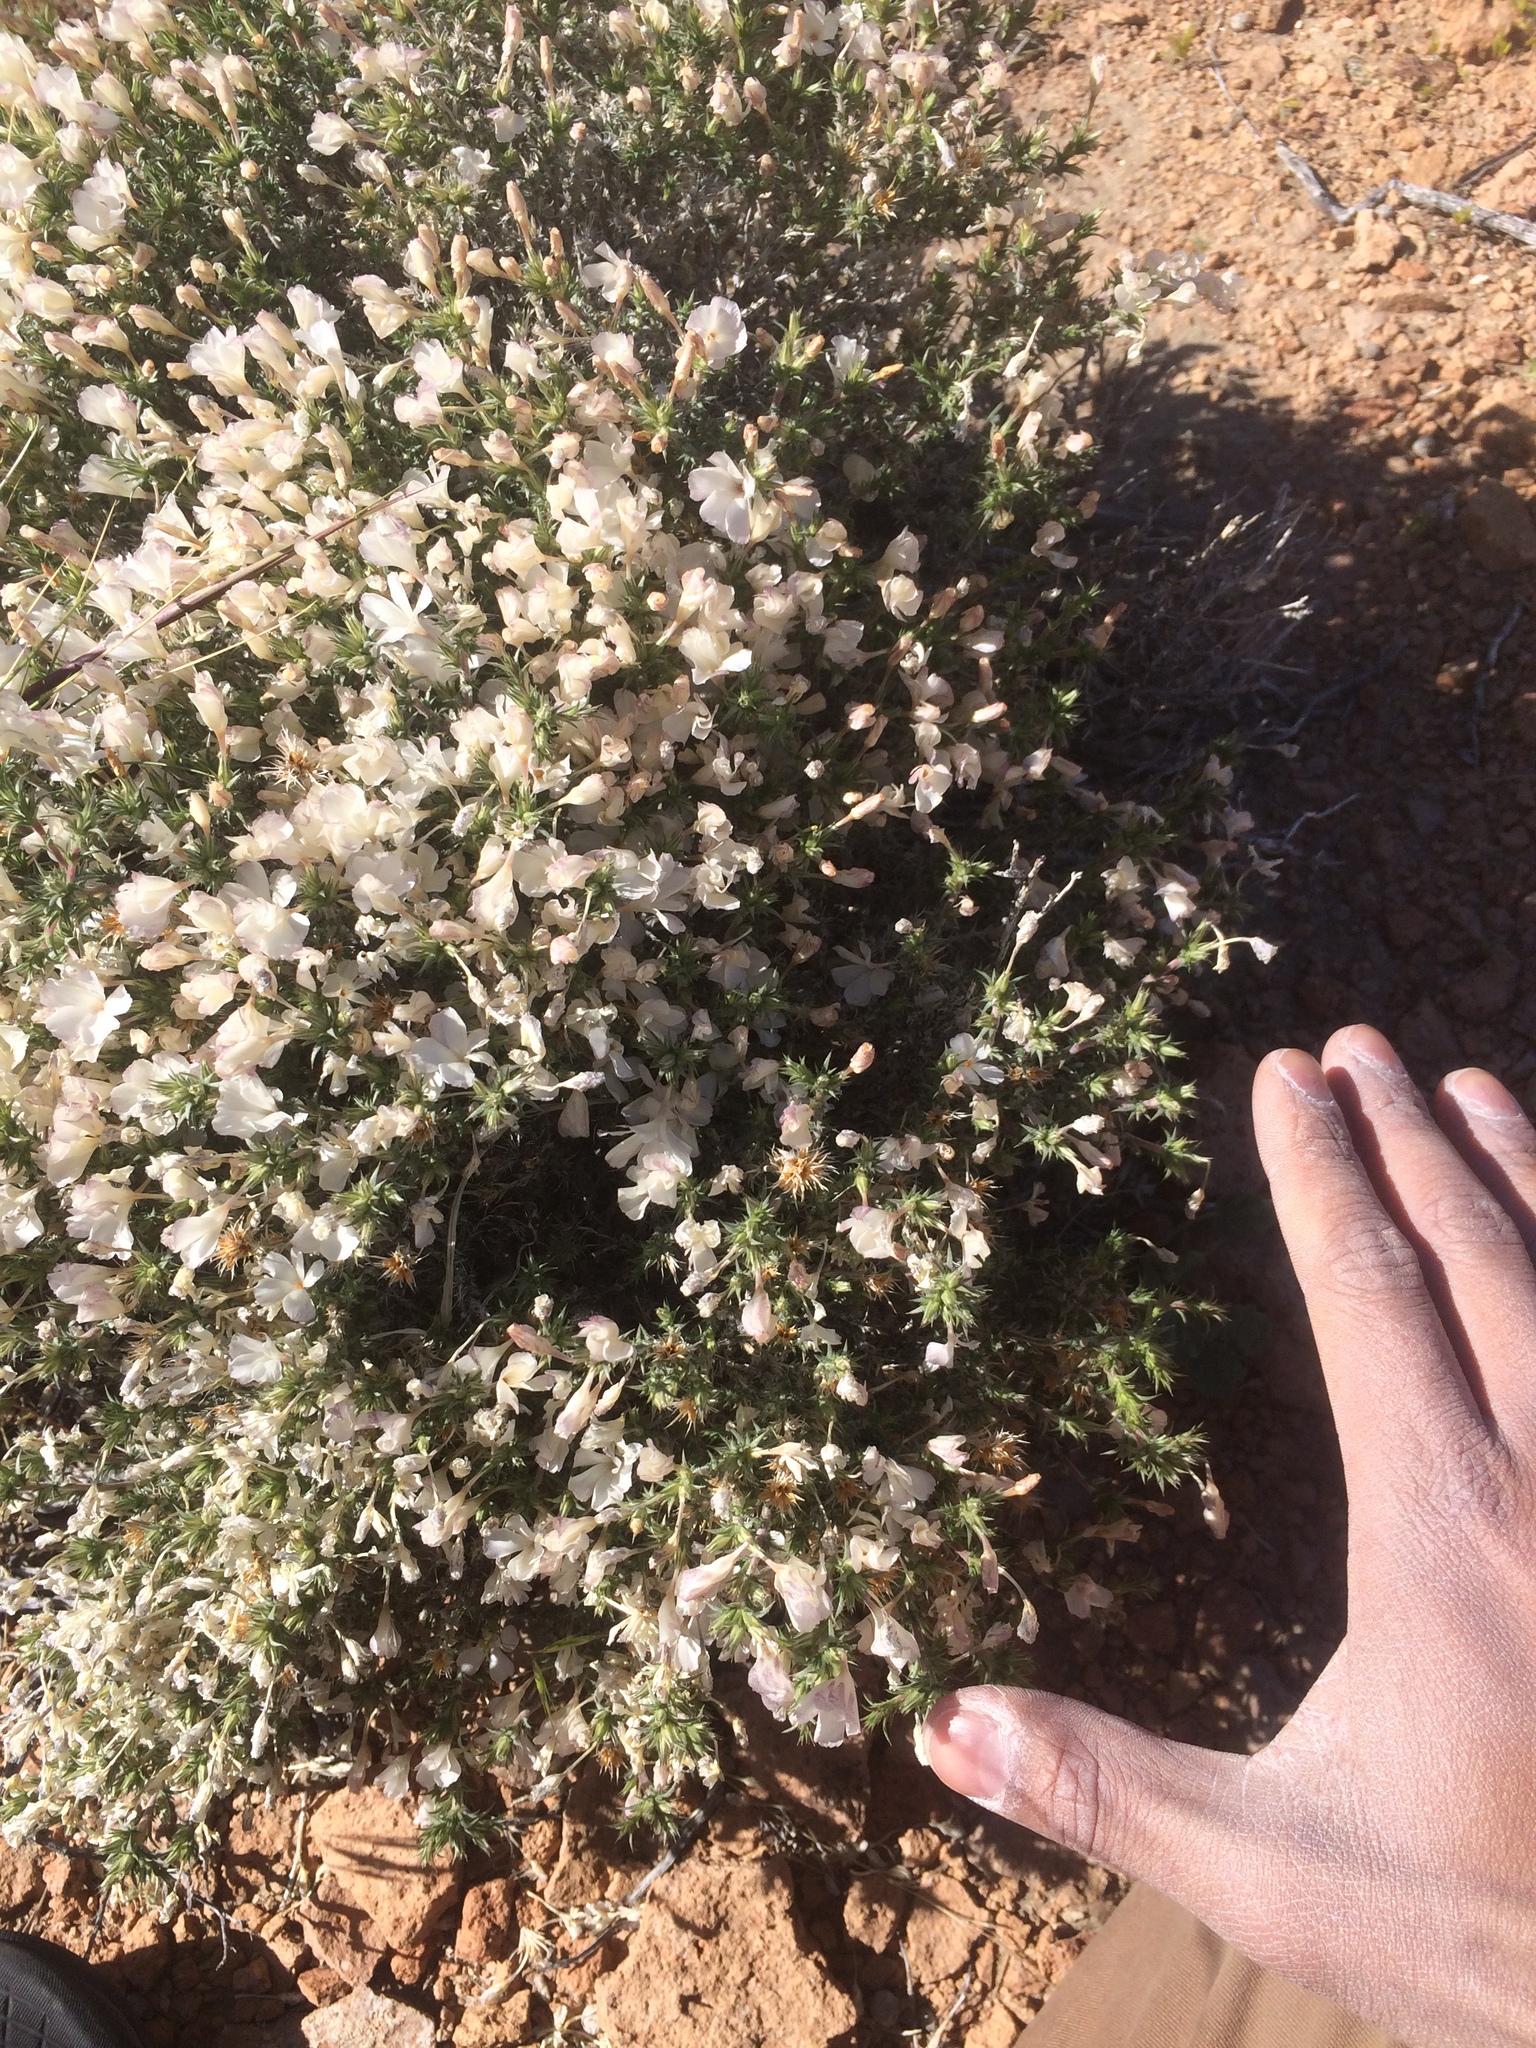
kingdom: Plantae
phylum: Tracheophyta
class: Magnoliopsida
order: Ericales
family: Polemoniaceae
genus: Linanthus
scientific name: Linanthus pungens
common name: Granite prickly phlox
